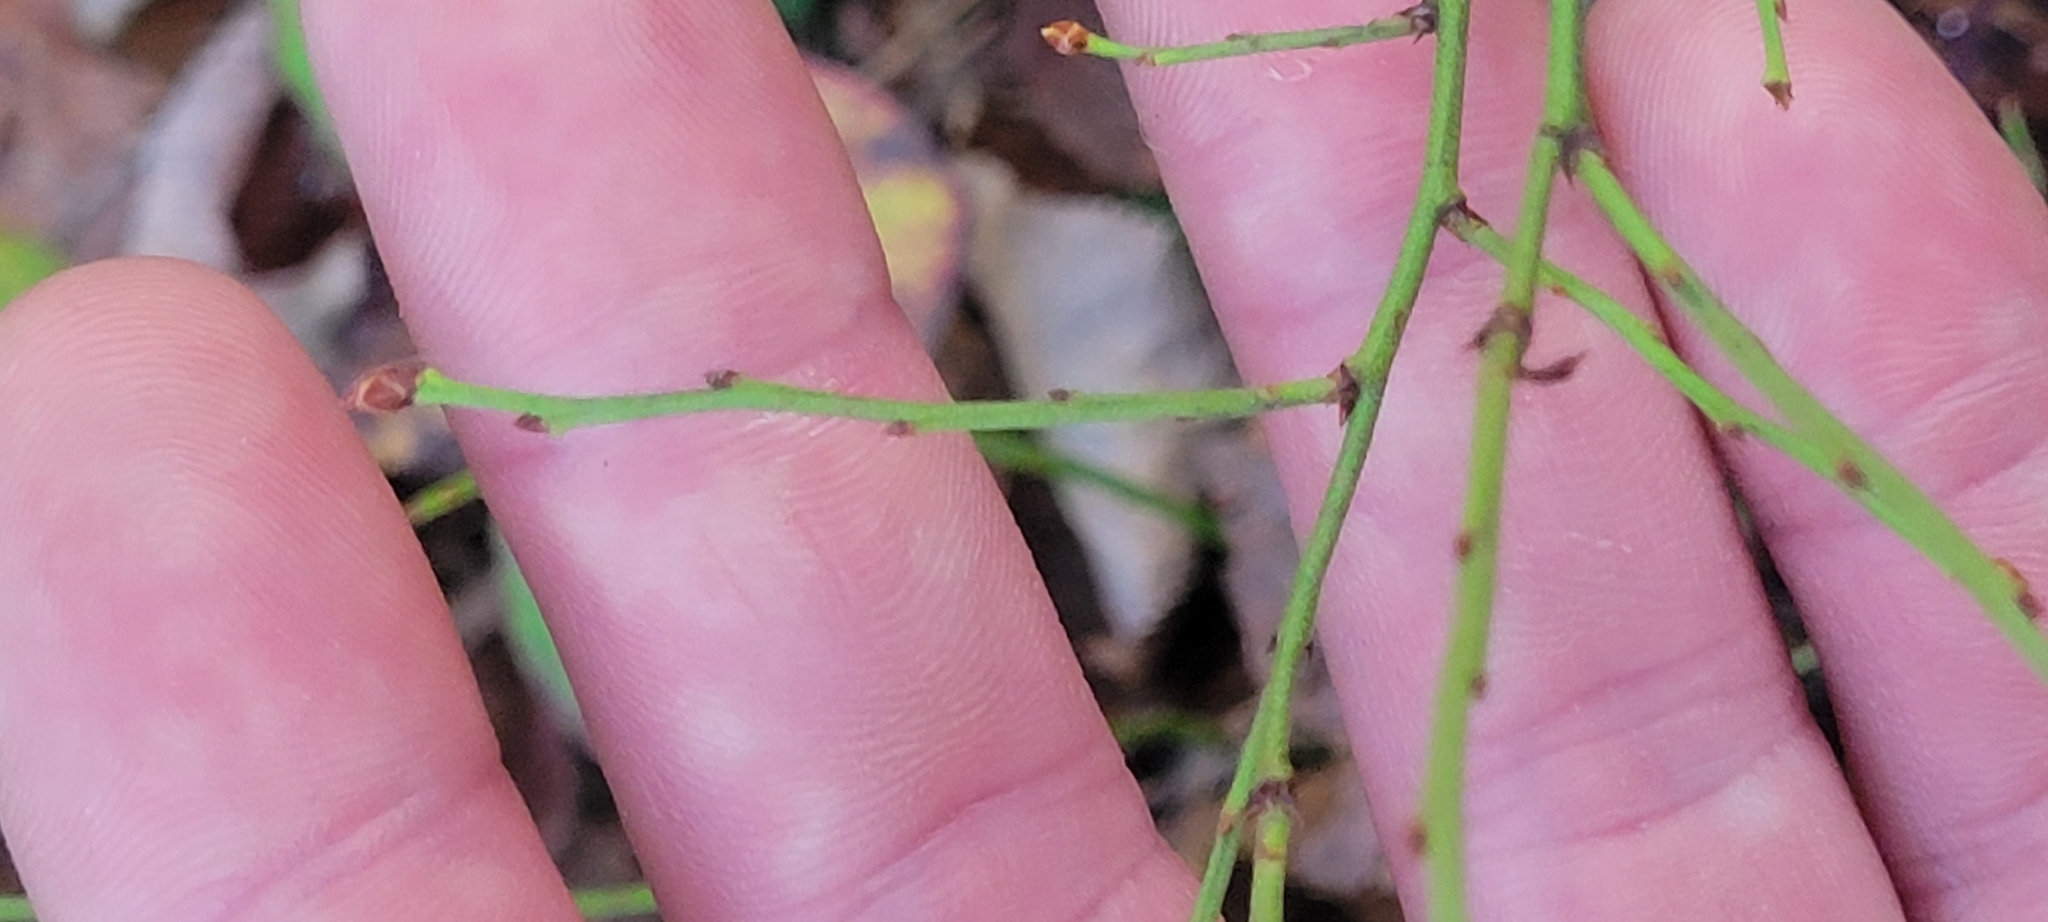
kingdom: Plantae
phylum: Tracheophyta
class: Magnoliopsida
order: Ericales
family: Ericaceae
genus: Vaccinium
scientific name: Vaccinium angustifolium
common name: Early lowbush blueberry
